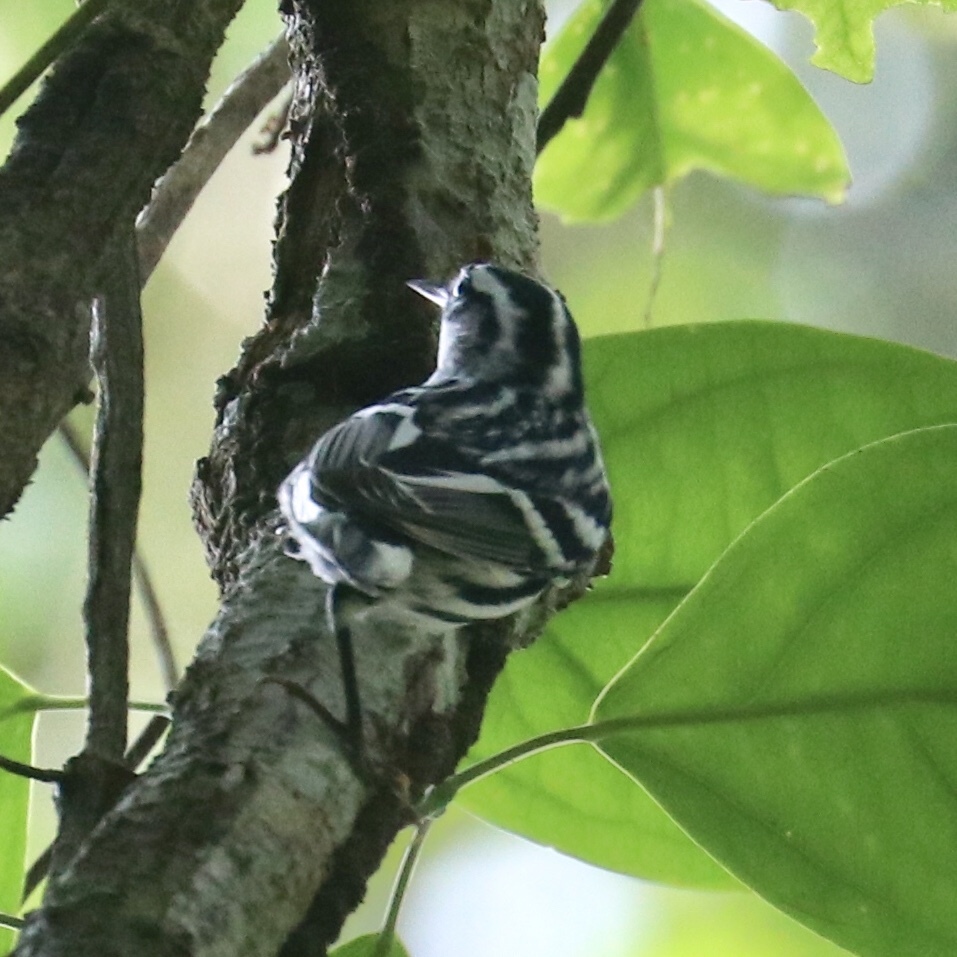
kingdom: Animalia
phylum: Chordata
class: Aves
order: Passeriformes
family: Parulidae
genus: Mniotilta
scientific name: Mniotilta varia
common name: Black-and-white warbler
